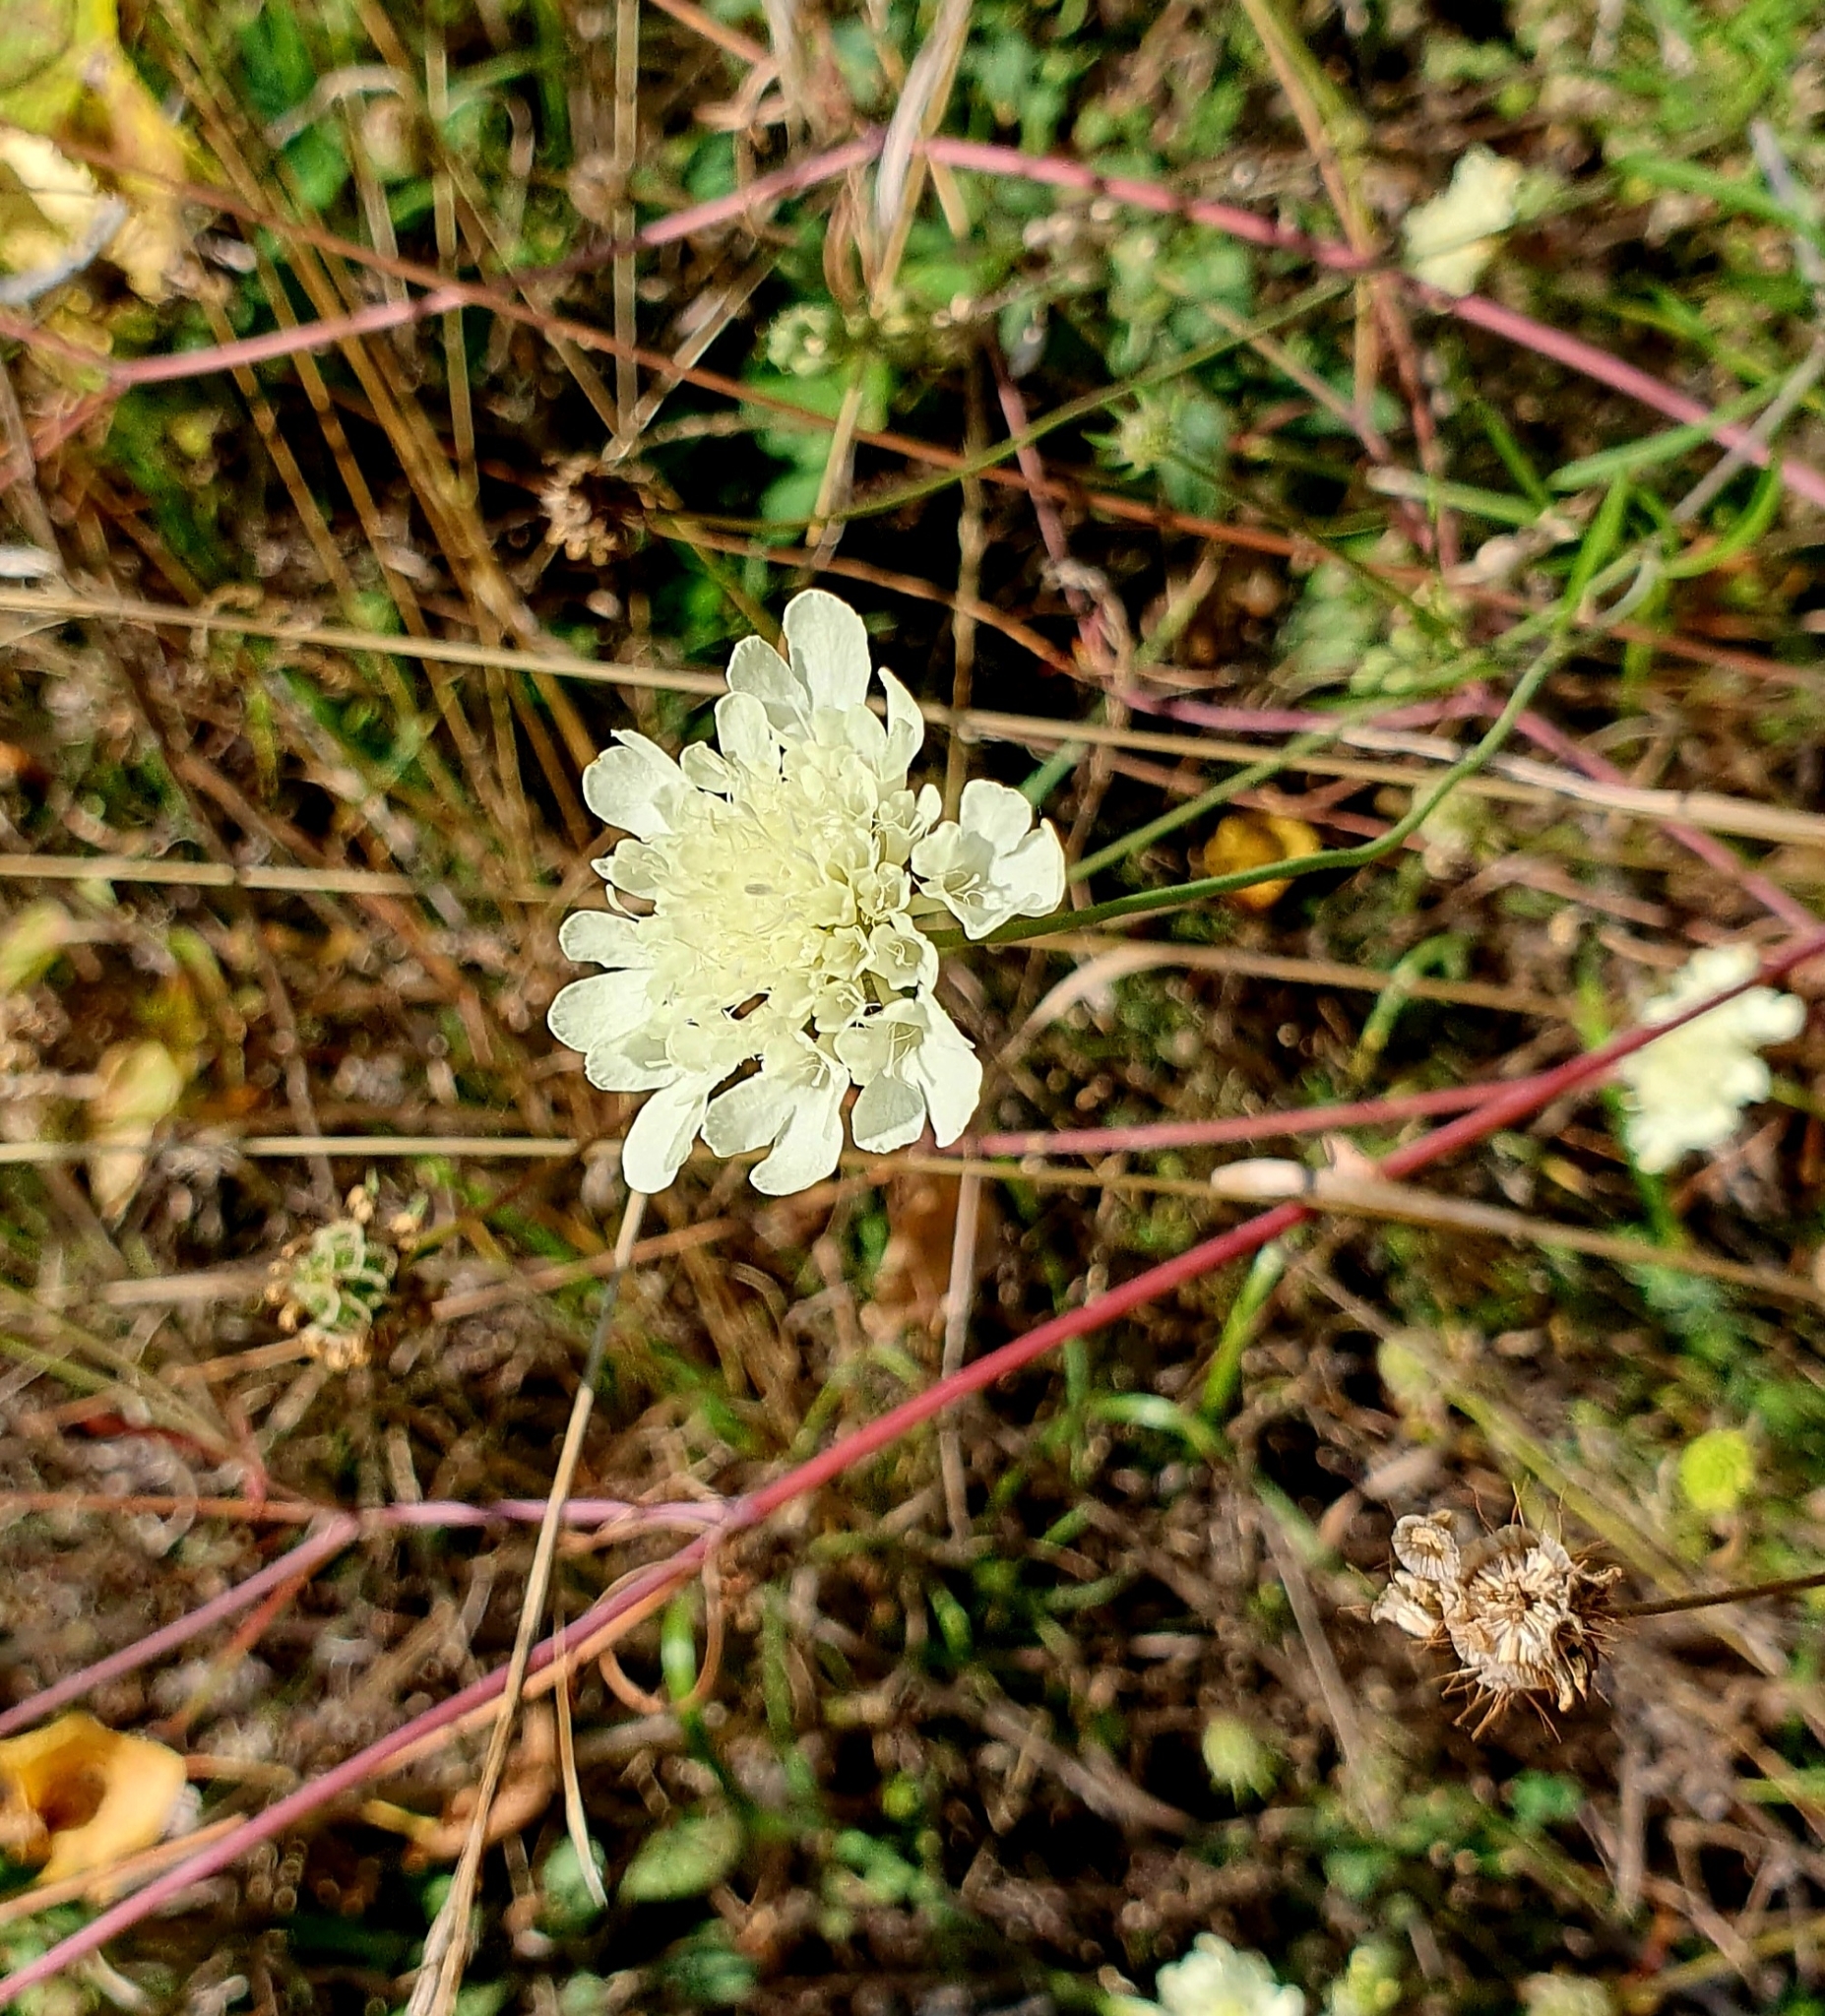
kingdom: Plantae
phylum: Tracheophyta
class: Magnoliopsida
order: Dipsacales
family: Caprifoliaceae
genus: Scabiosa
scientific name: Scabiosa ochroleuca
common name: Cream pincushions
